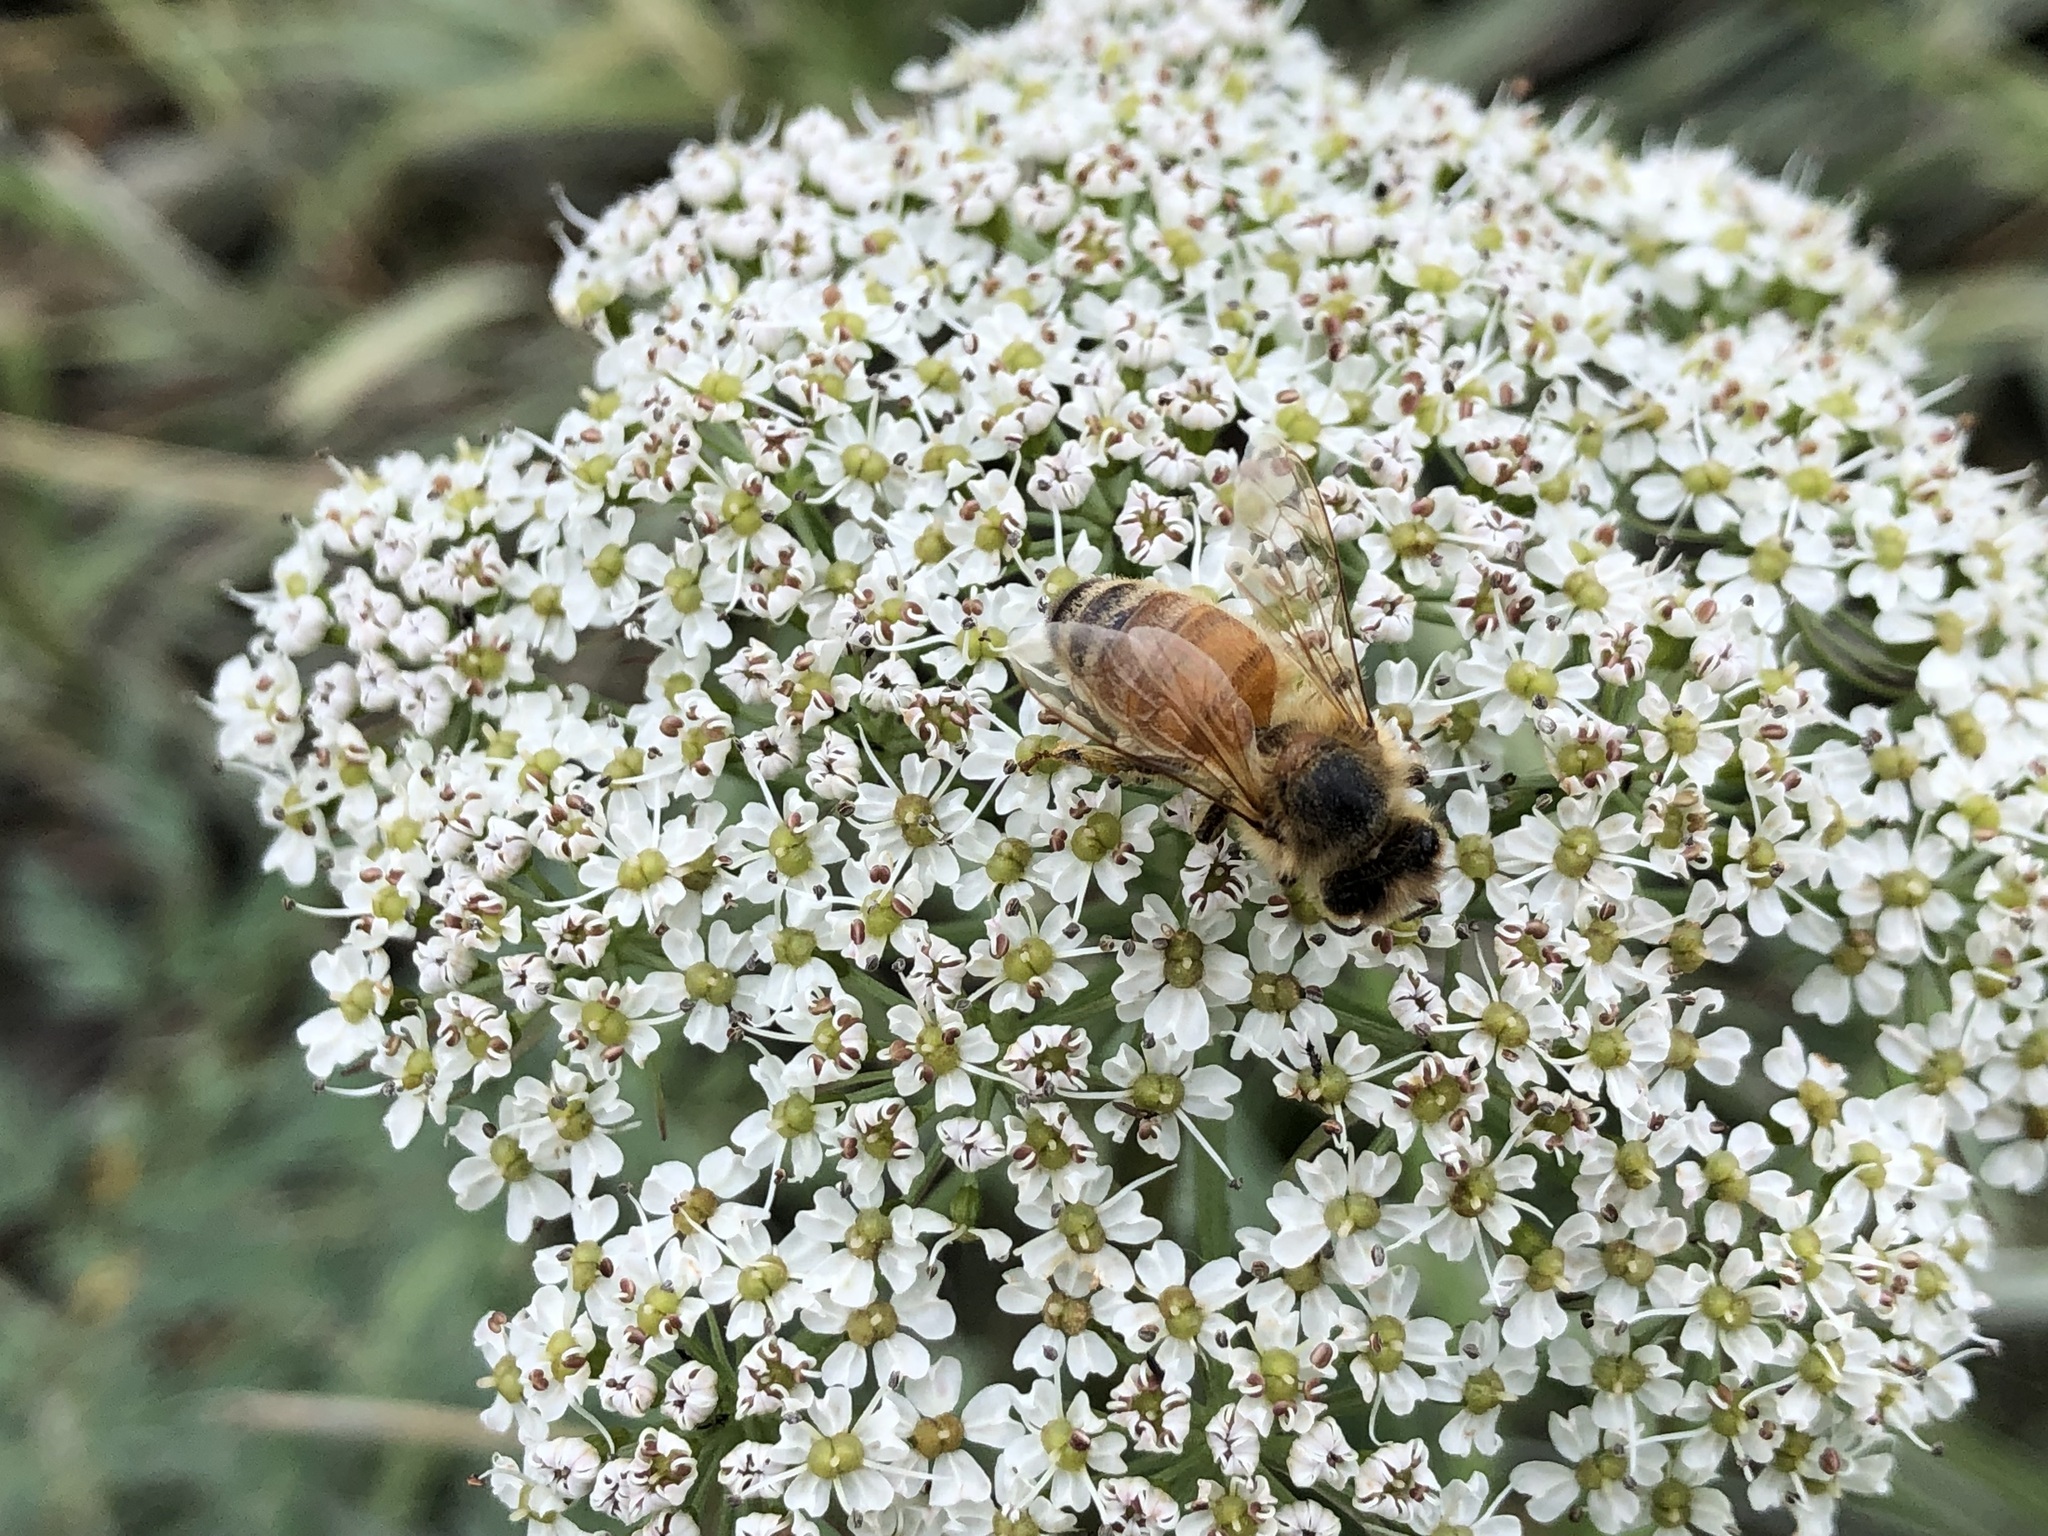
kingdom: Animalia
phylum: Arthropoda
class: Insecta
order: Hymenoptera
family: Apidae
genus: Apis
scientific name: Apis mellifera
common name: Honey bee
